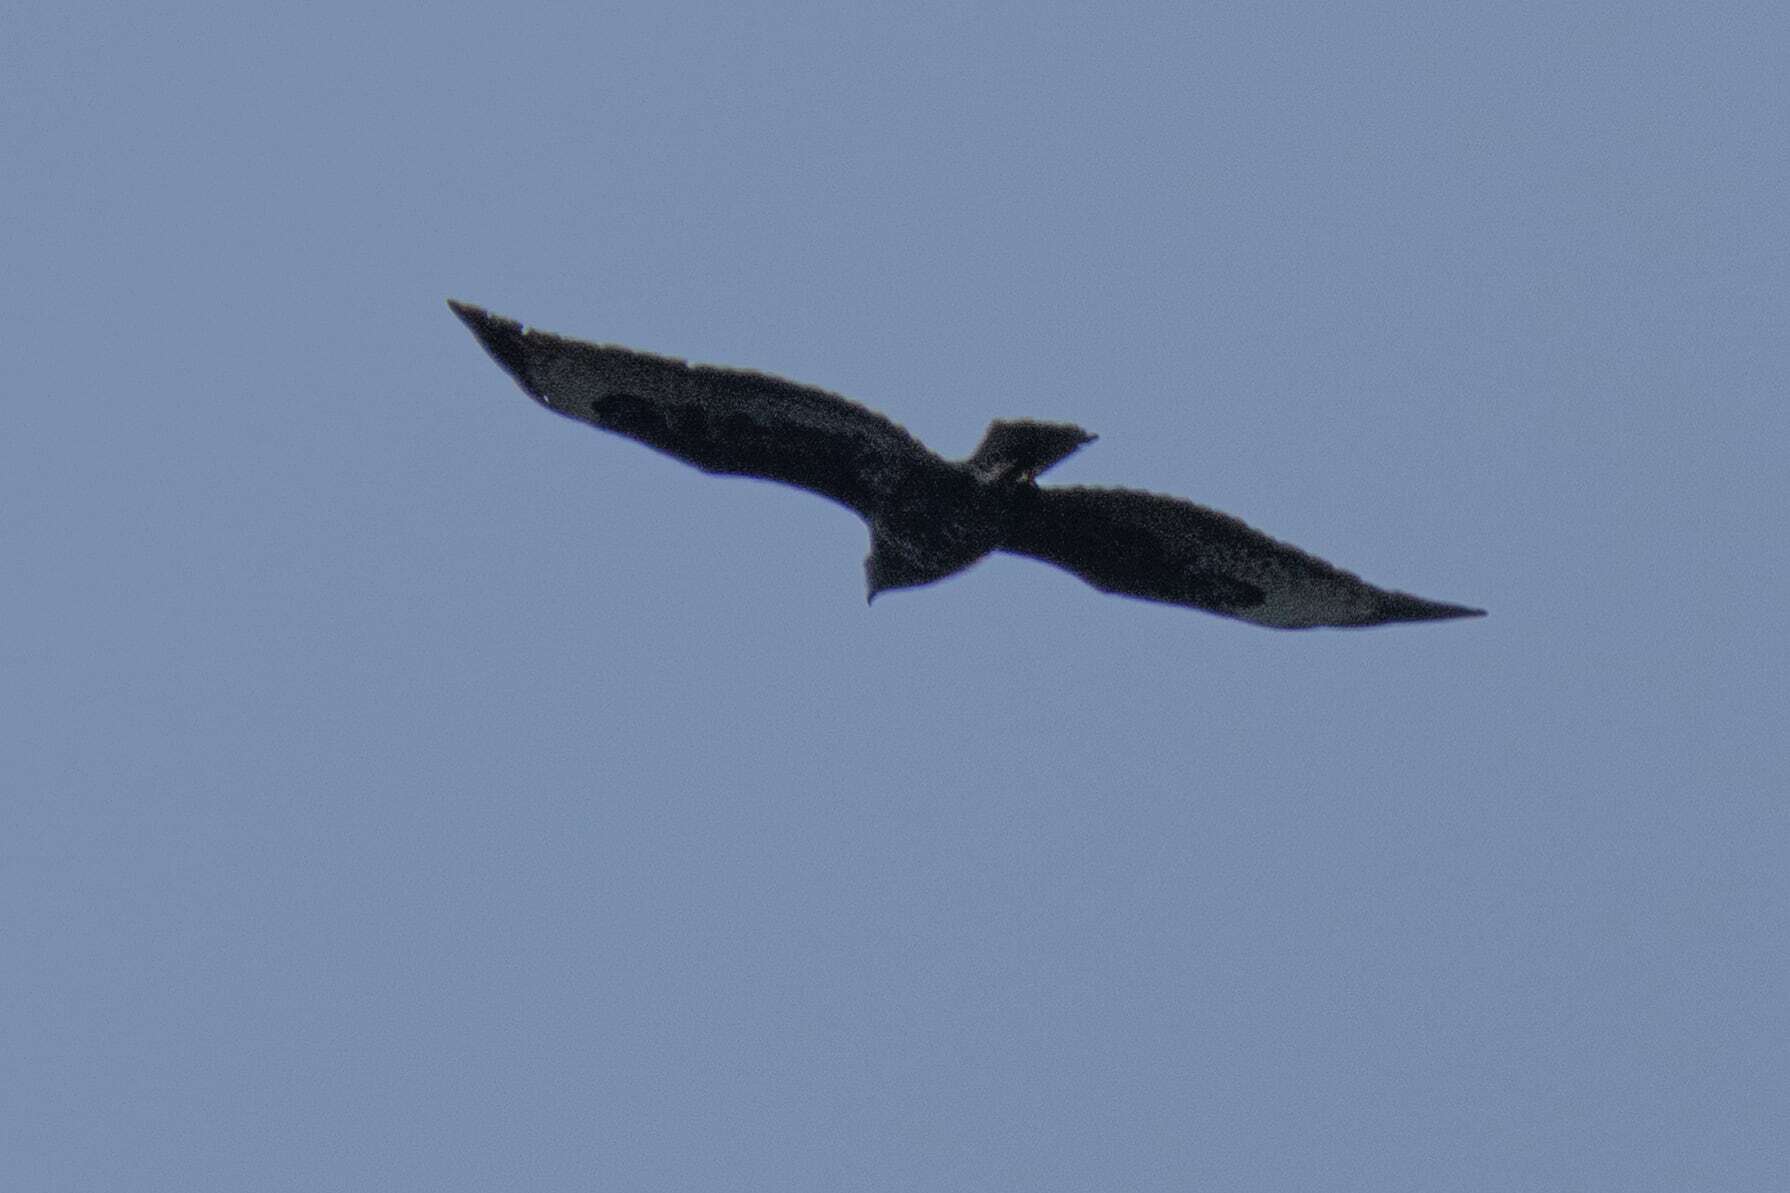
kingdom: Animalia
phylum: Chordata
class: Aves
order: Accipitriformes
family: Accipitridae
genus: Buteo
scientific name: Buteo buteo
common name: Common buzzard
